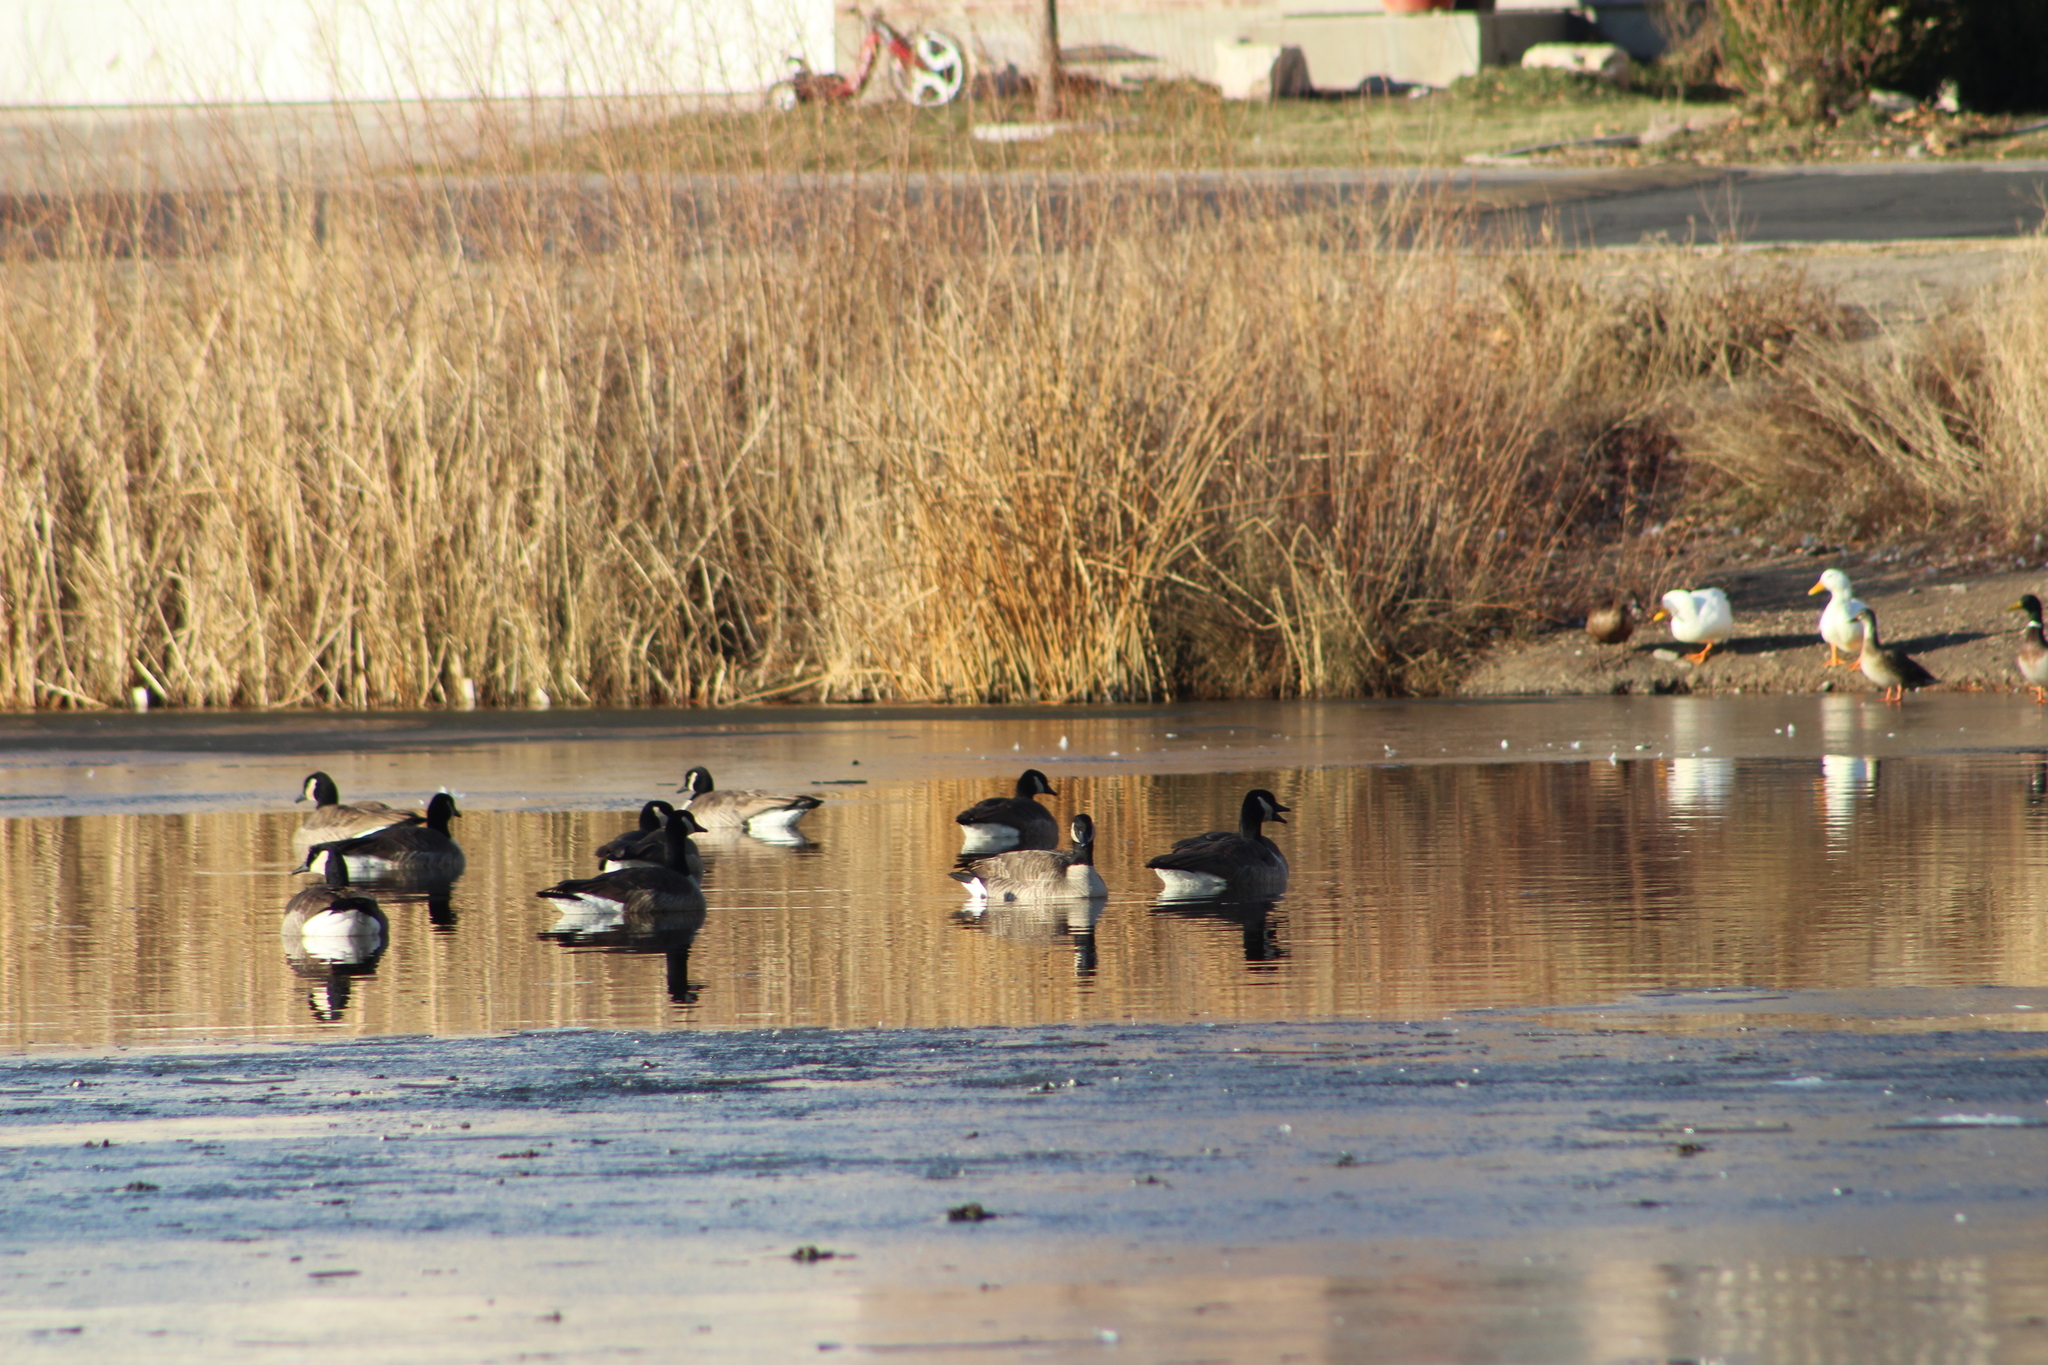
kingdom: Animalia
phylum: Chordata
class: Aves
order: Anseriformes
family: Anatidae
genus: Branta
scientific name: Branta canadensis
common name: Canada goose
